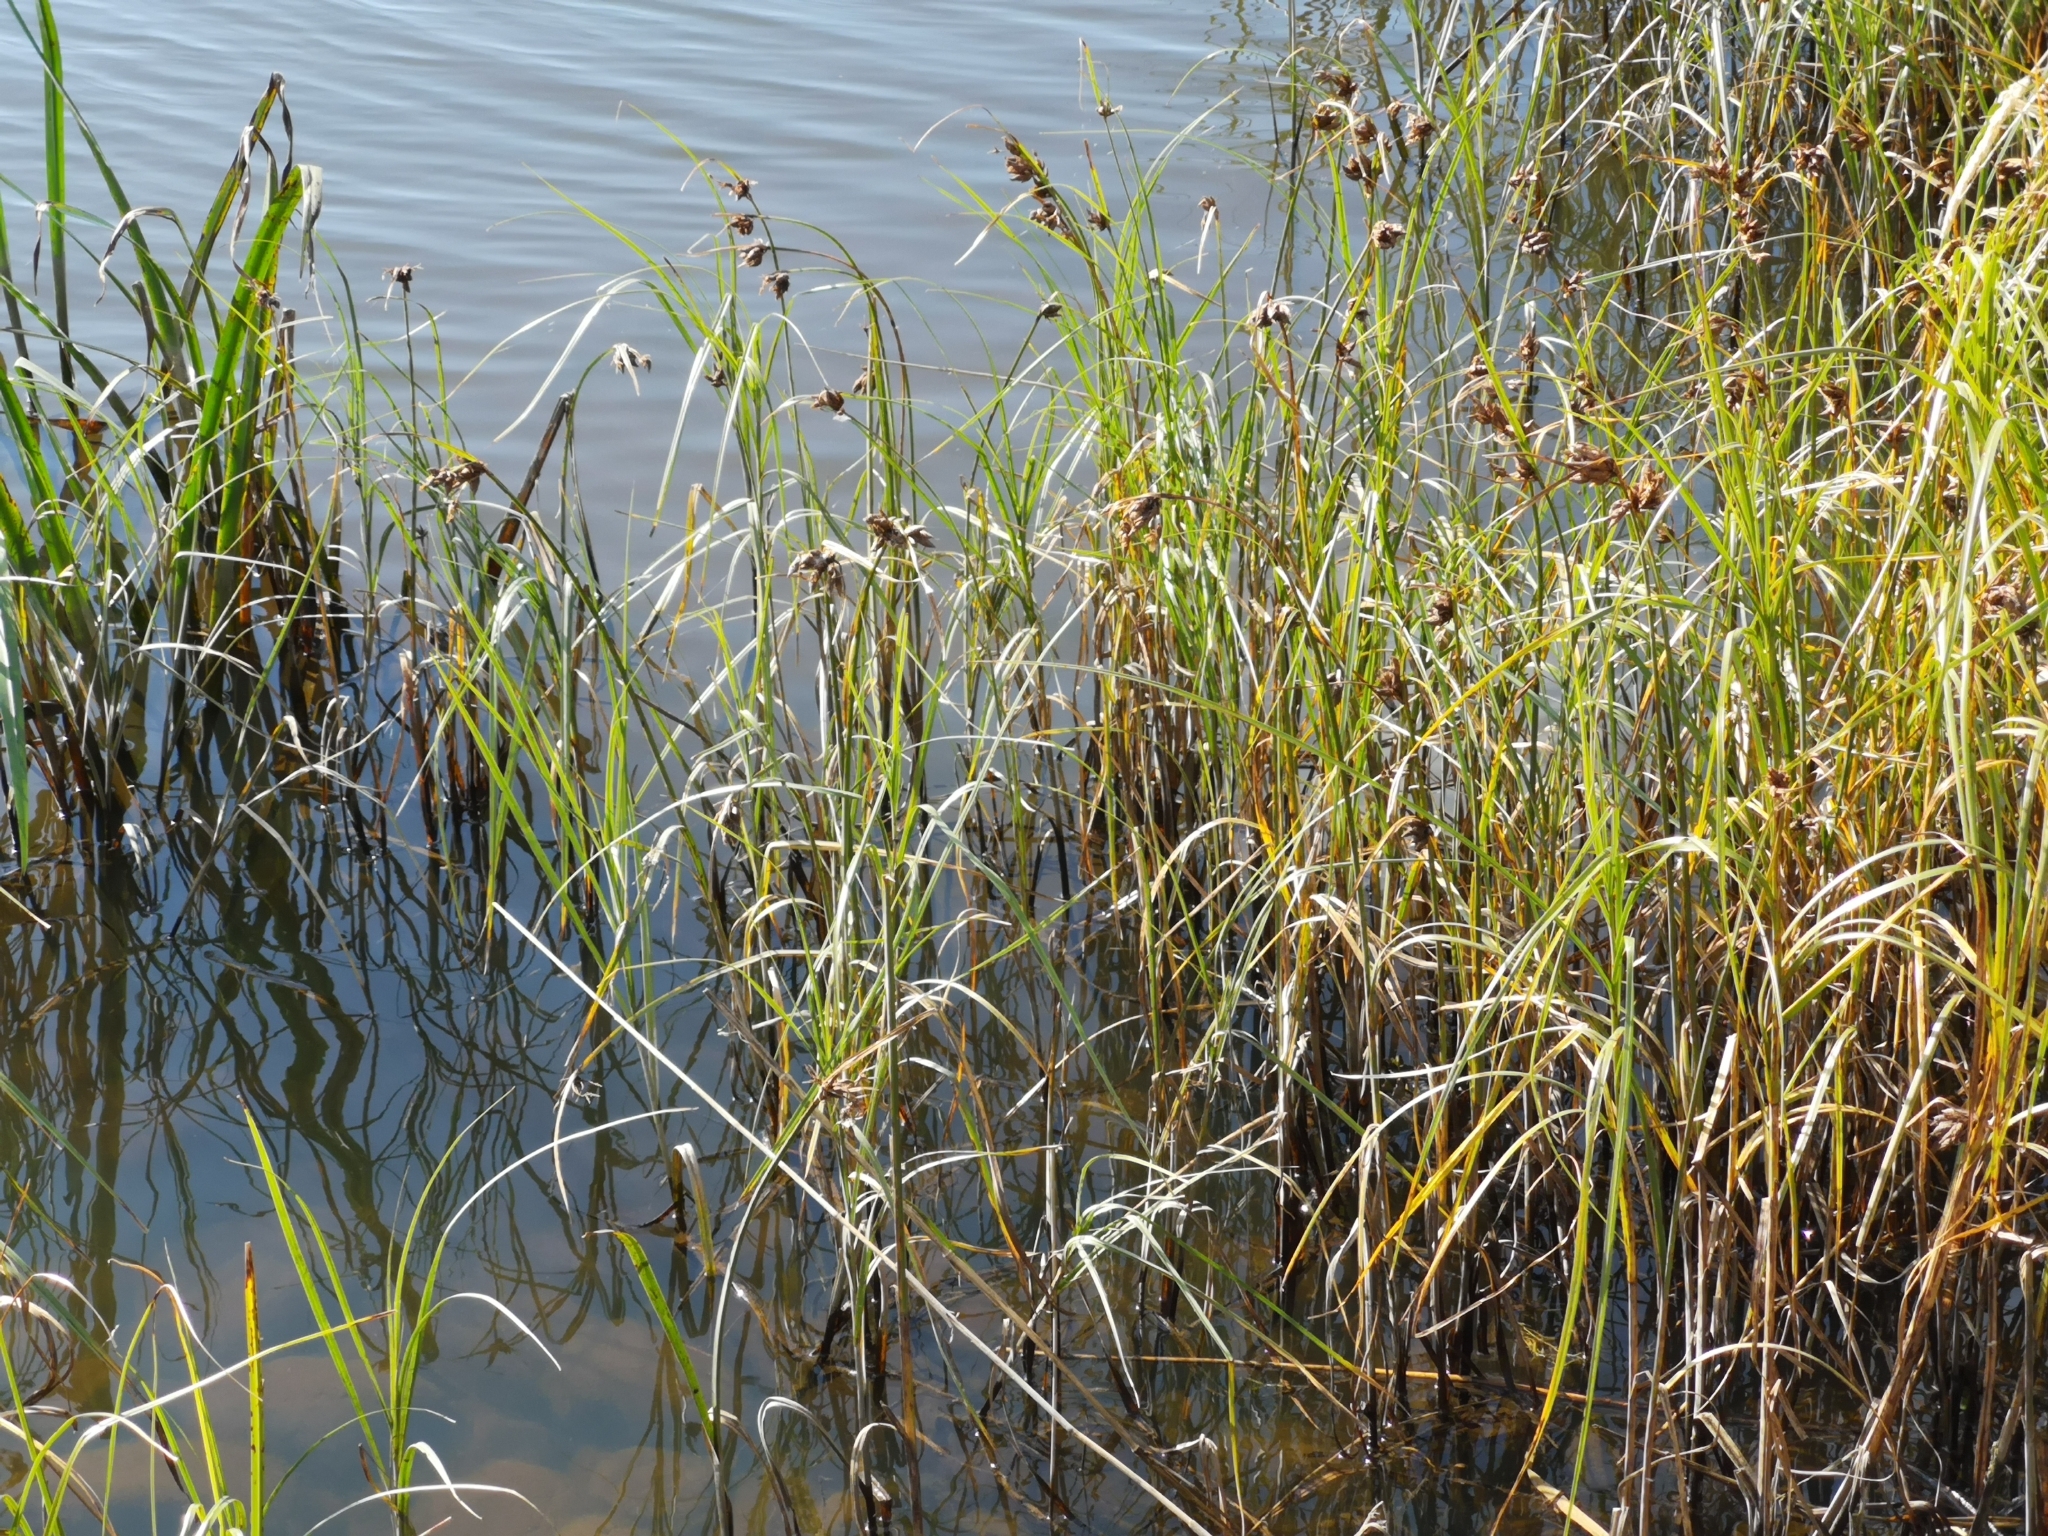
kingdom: Plantae
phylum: Tracheophyta
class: Liliopsida
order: Poales
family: Cyperaceae
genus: Bolboschoenus
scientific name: Bolboschoenus maritimus
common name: Sea club-rush
